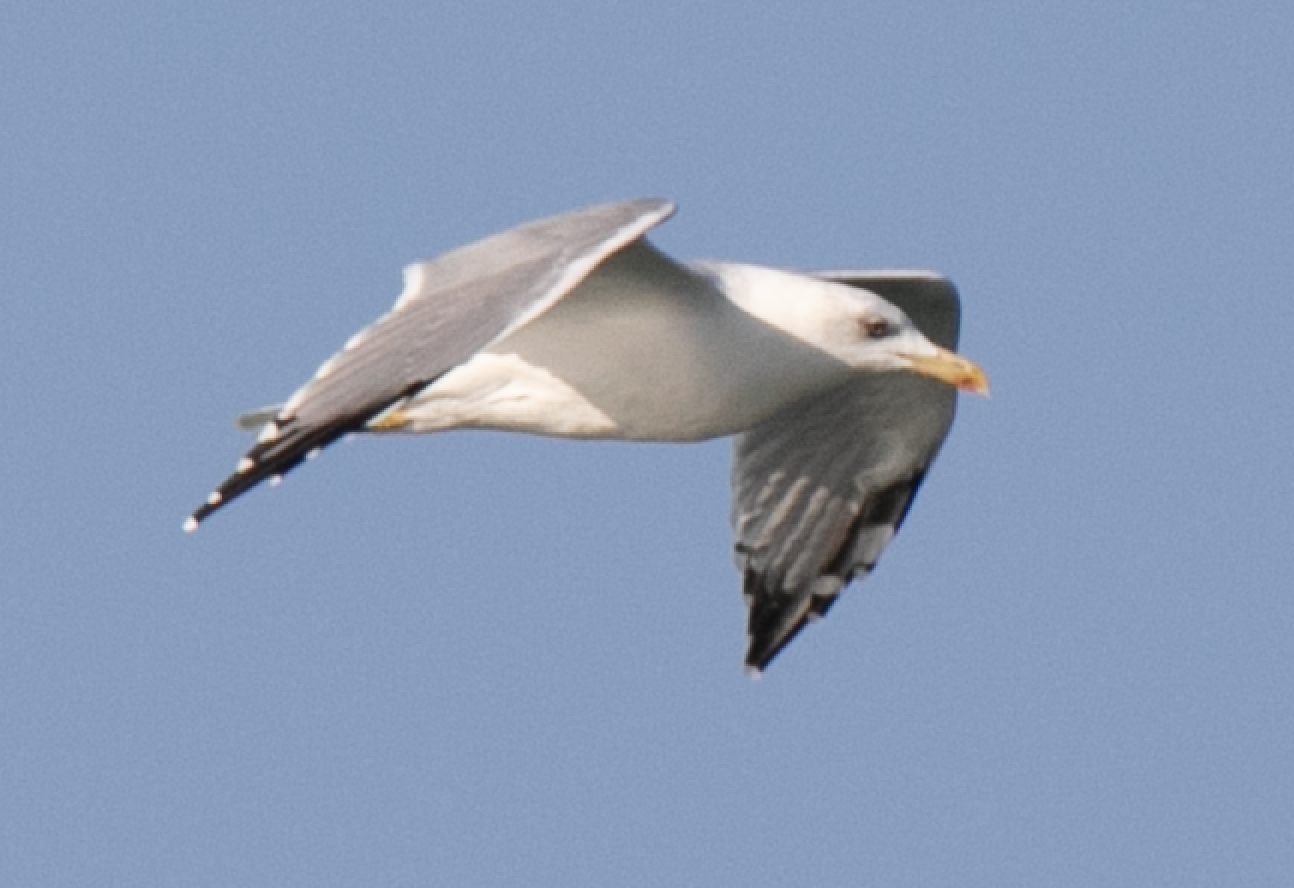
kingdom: Animalia
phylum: Chordata
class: Aves
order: Charadriiformes
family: Laridae
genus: Larus
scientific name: Larus michahellis
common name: Yellow-legged gull
